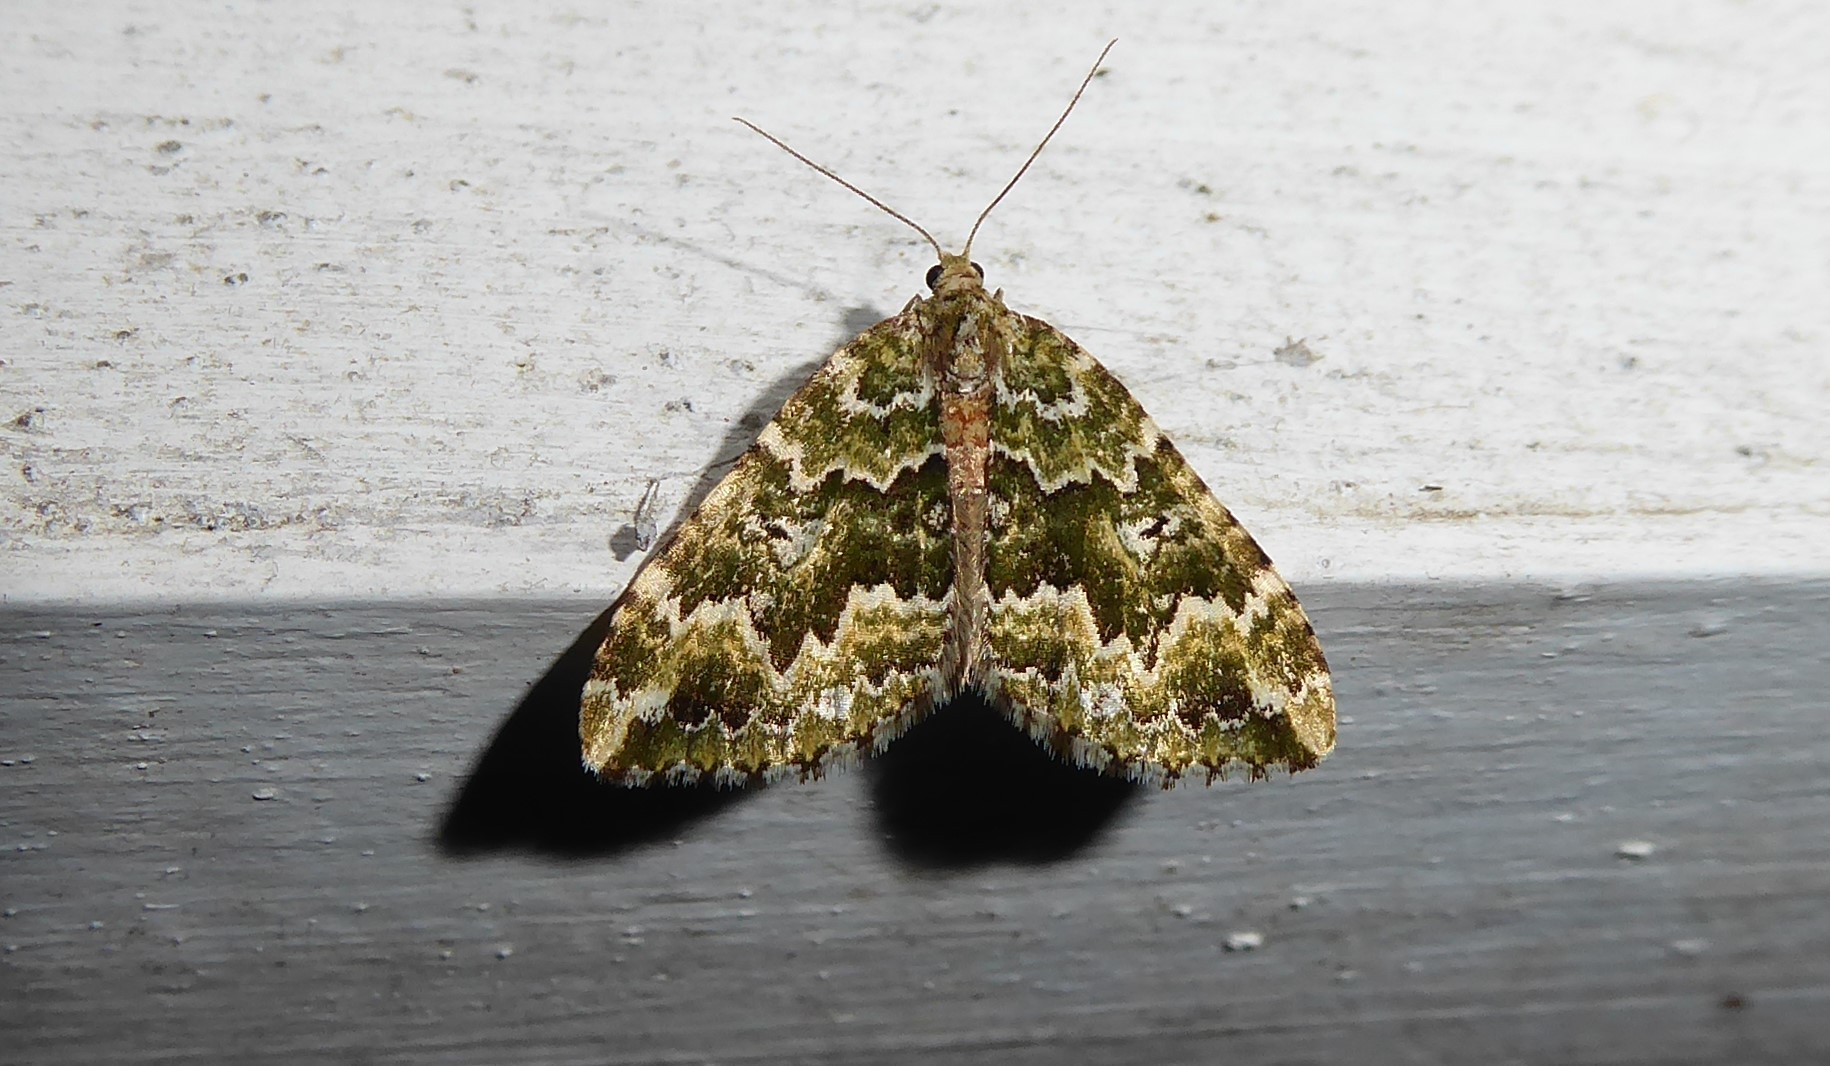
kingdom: Animalia
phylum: Arthropoda
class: Insecta
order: Lepidoptera
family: Geometridae
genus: Asaphodes
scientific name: Asaphodes beata
